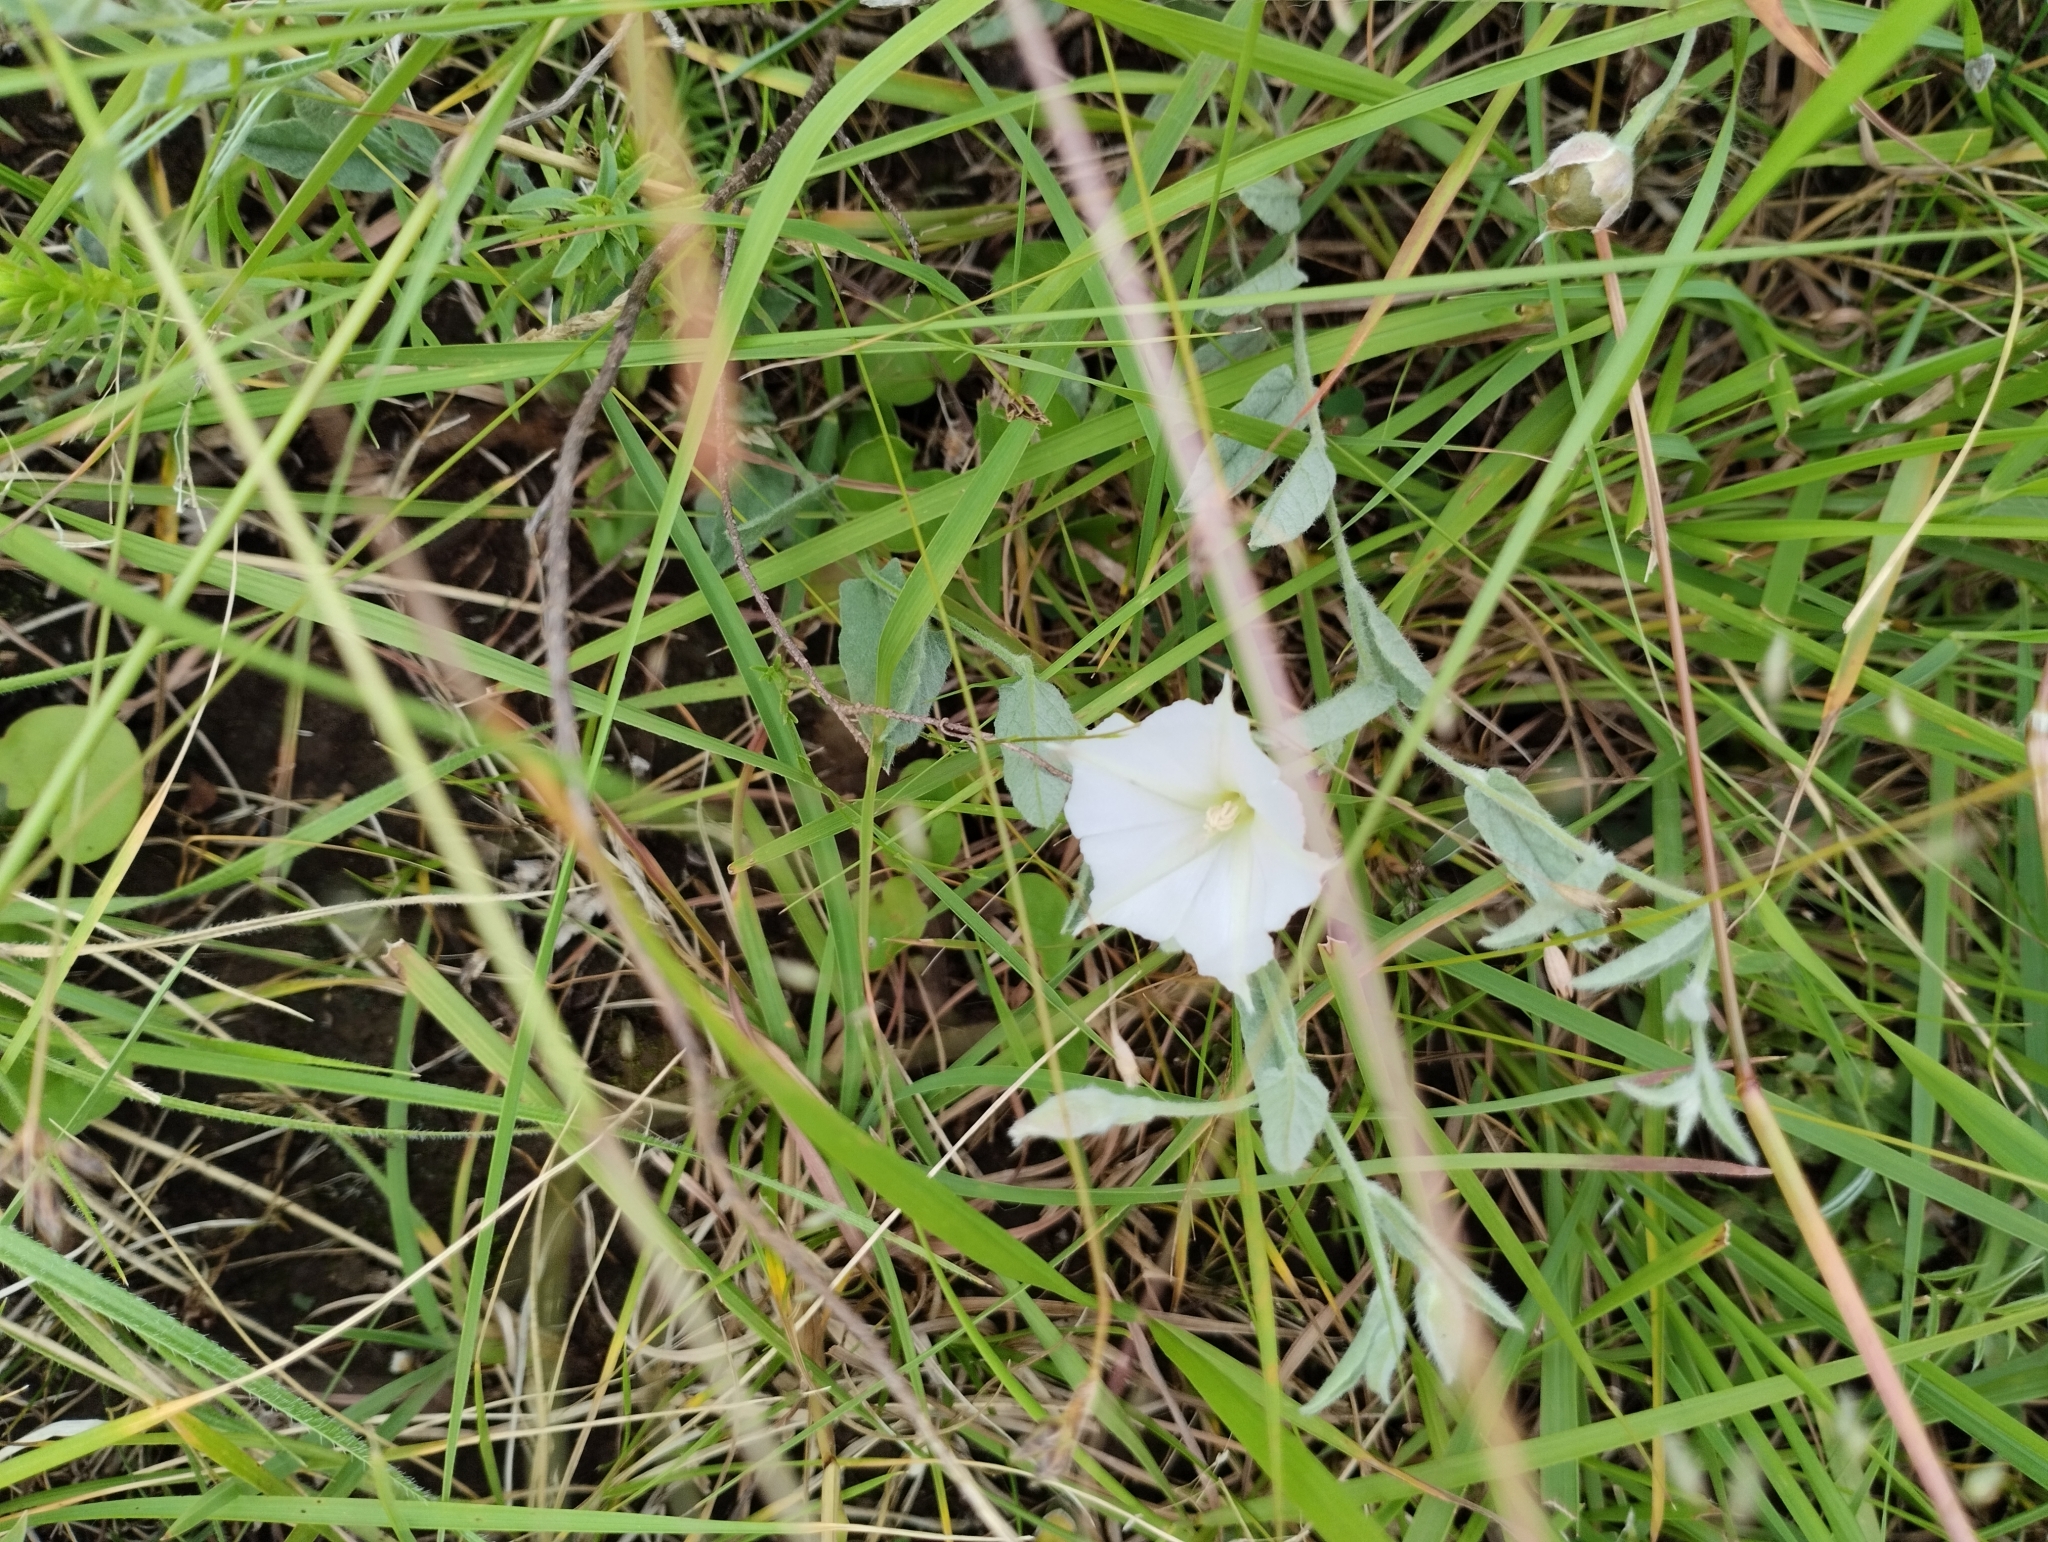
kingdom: Plantae
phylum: Tracheophyta
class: Magnoliopsida
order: Solanales
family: Convolvulaceae
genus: Convolvulus
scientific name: Convolvulus hermanniae
